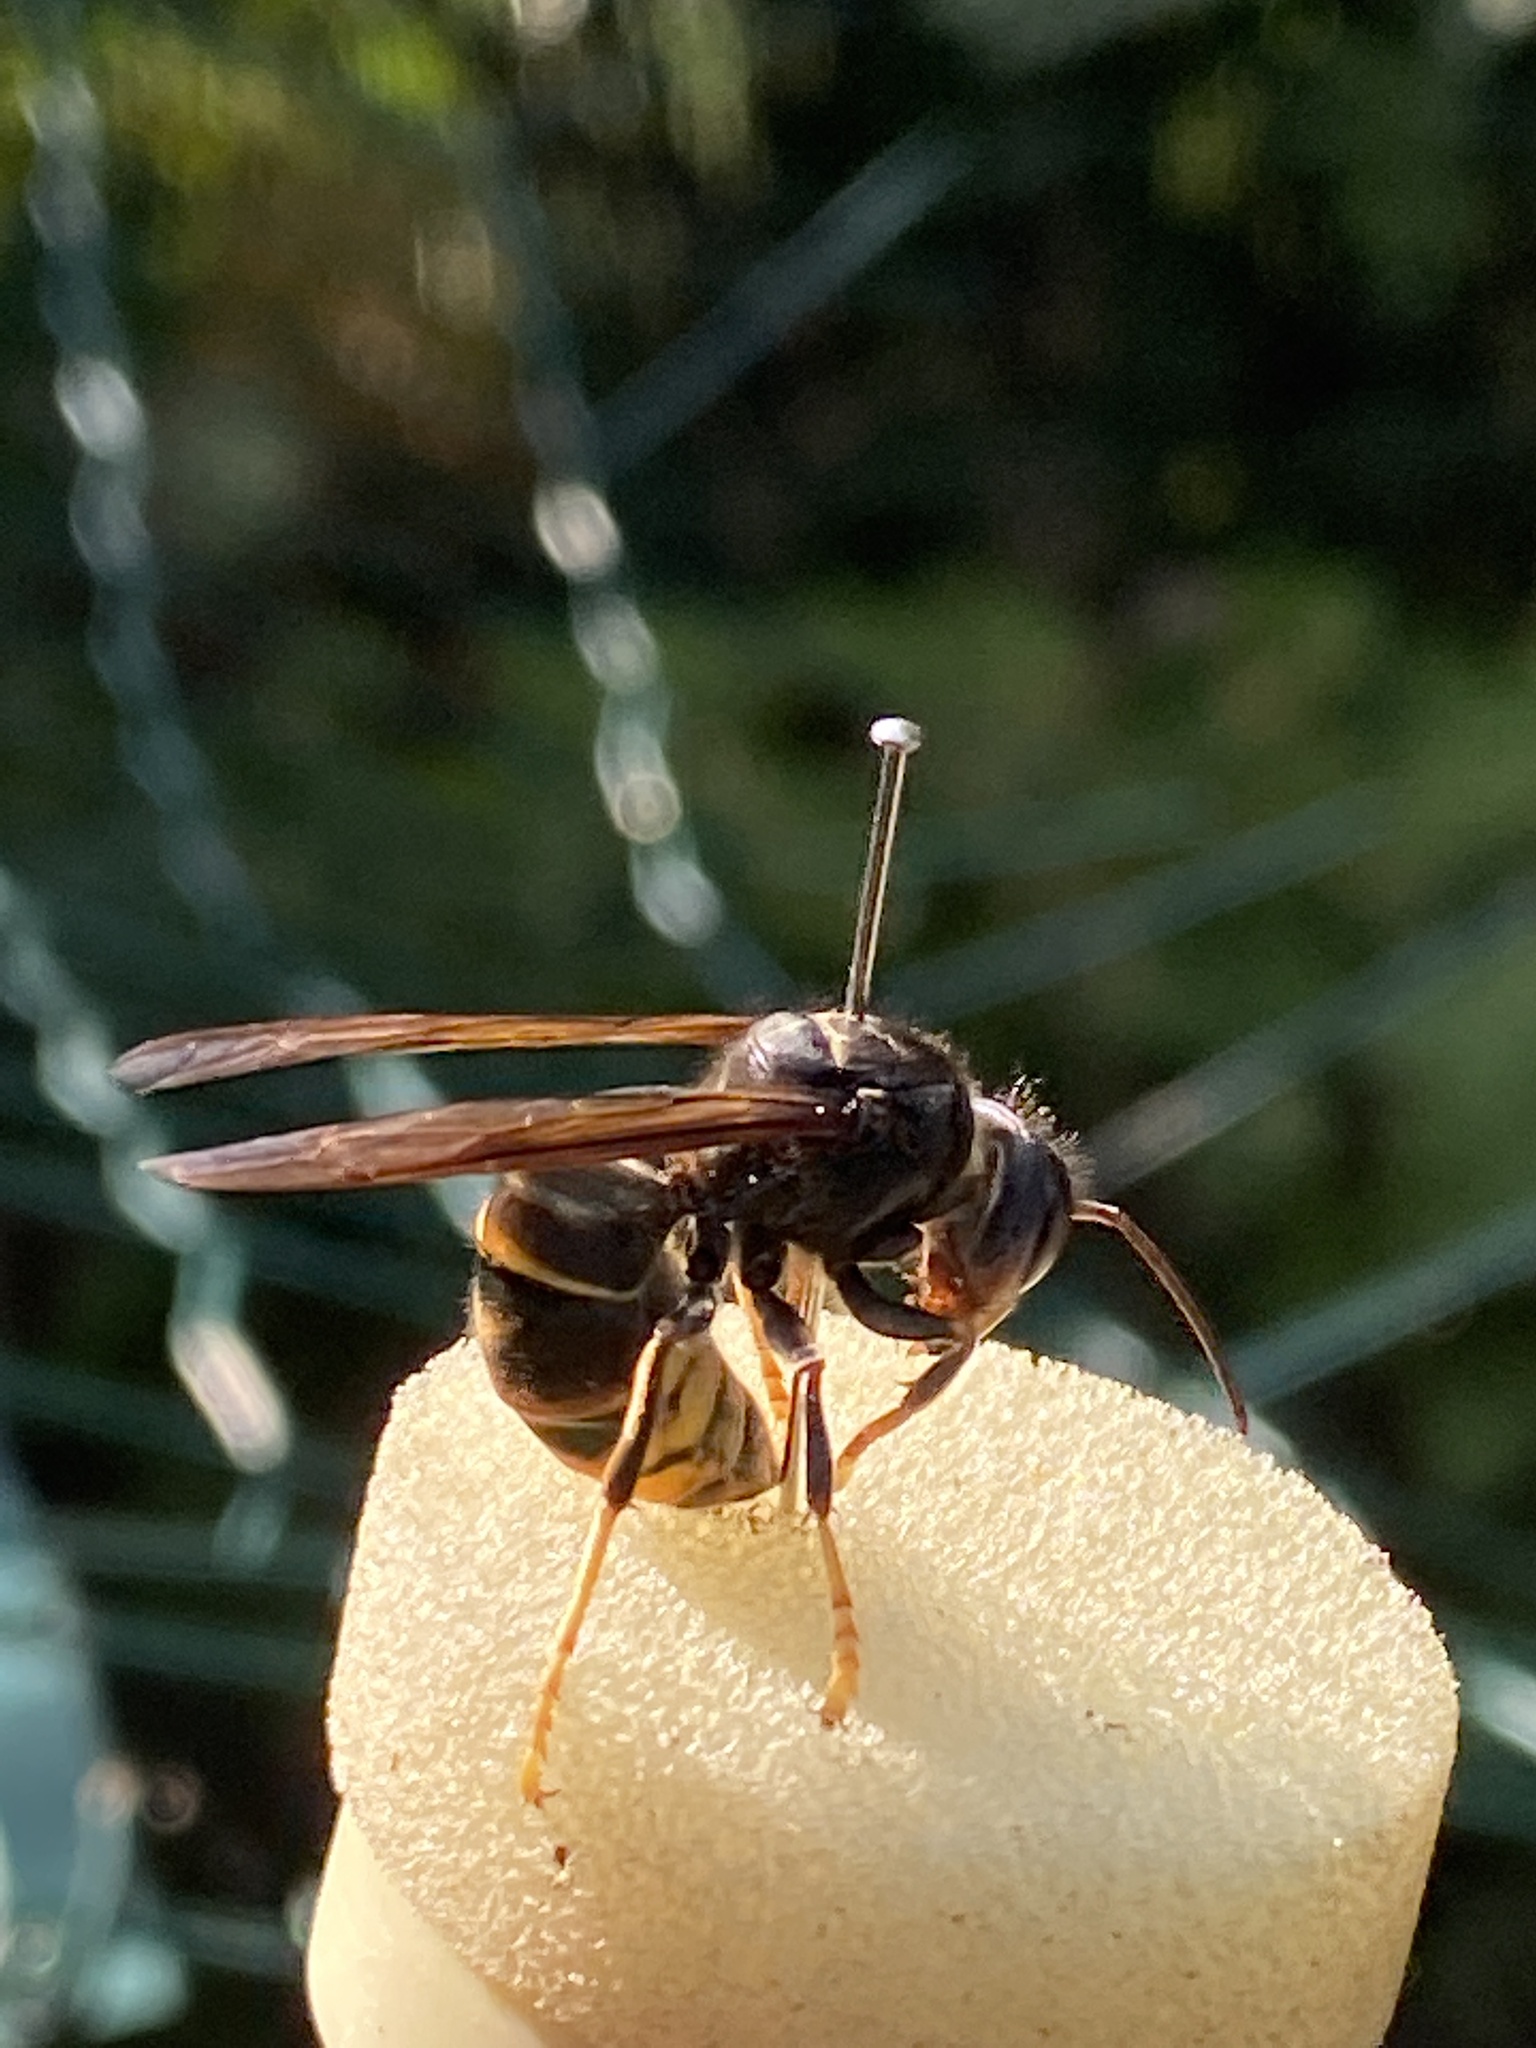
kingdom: Animalia
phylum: Arthropoda
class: Insecta
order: Hymenoptera
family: Vespidae
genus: Vespa
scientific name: Vespa velutina
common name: Asian hornet
